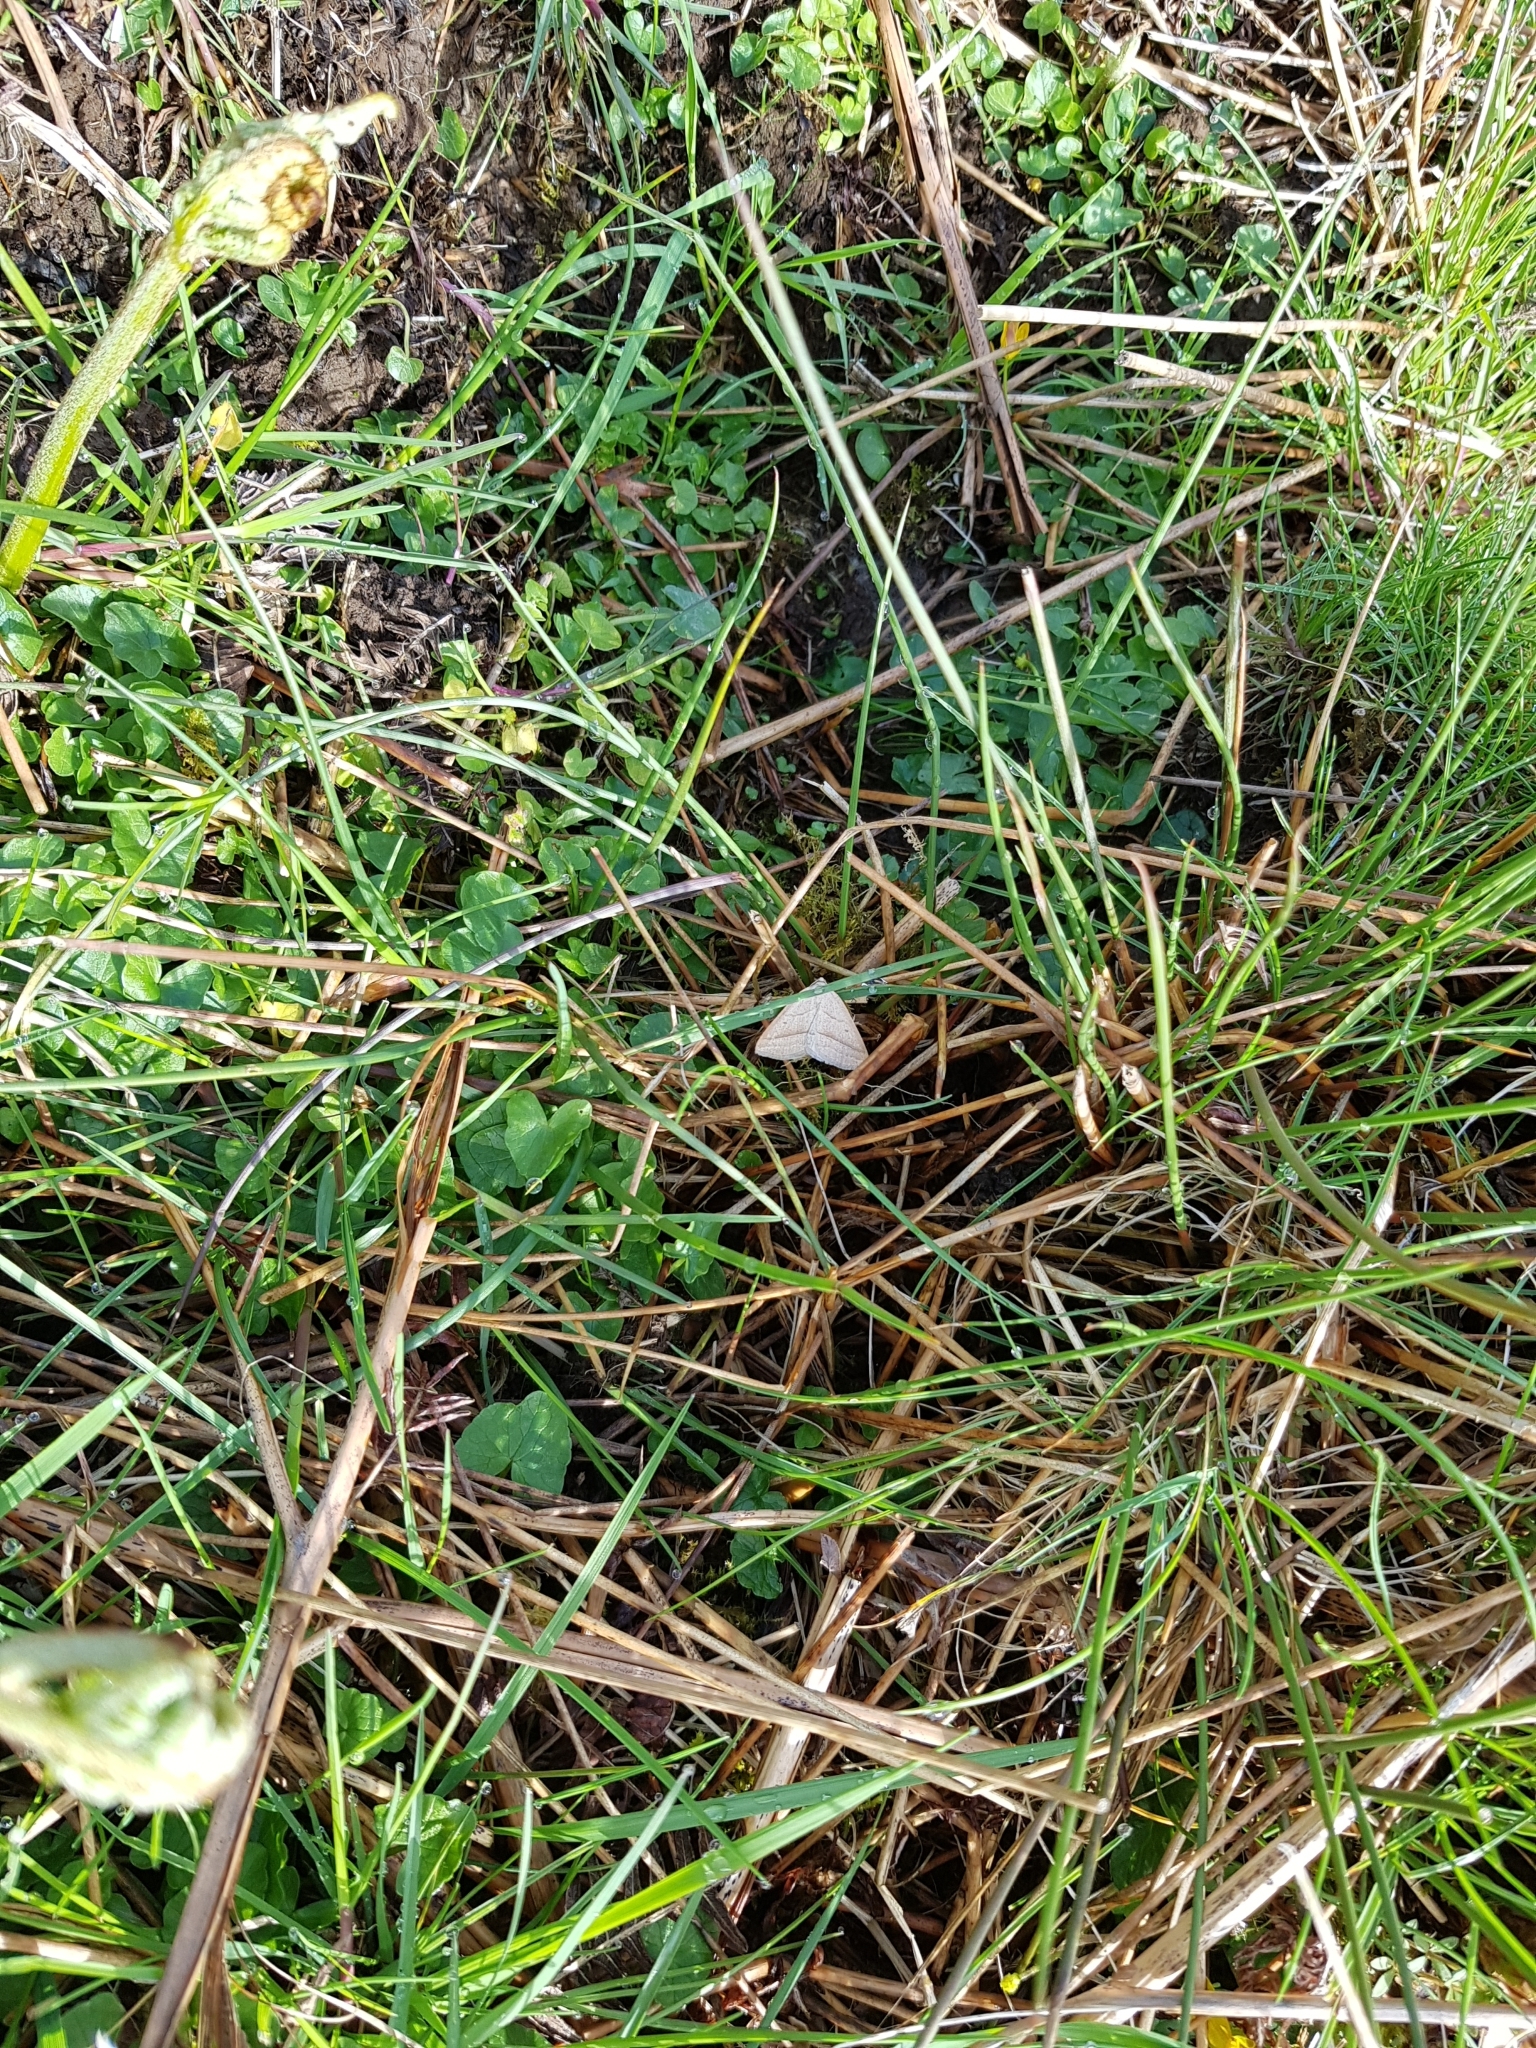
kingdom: Animalia
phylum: Arthropoda
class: Insecta
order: Lepidoptera
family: Pterophoridae
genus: Pterophorus
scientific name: Pterophorus Petrophora chlorosata
